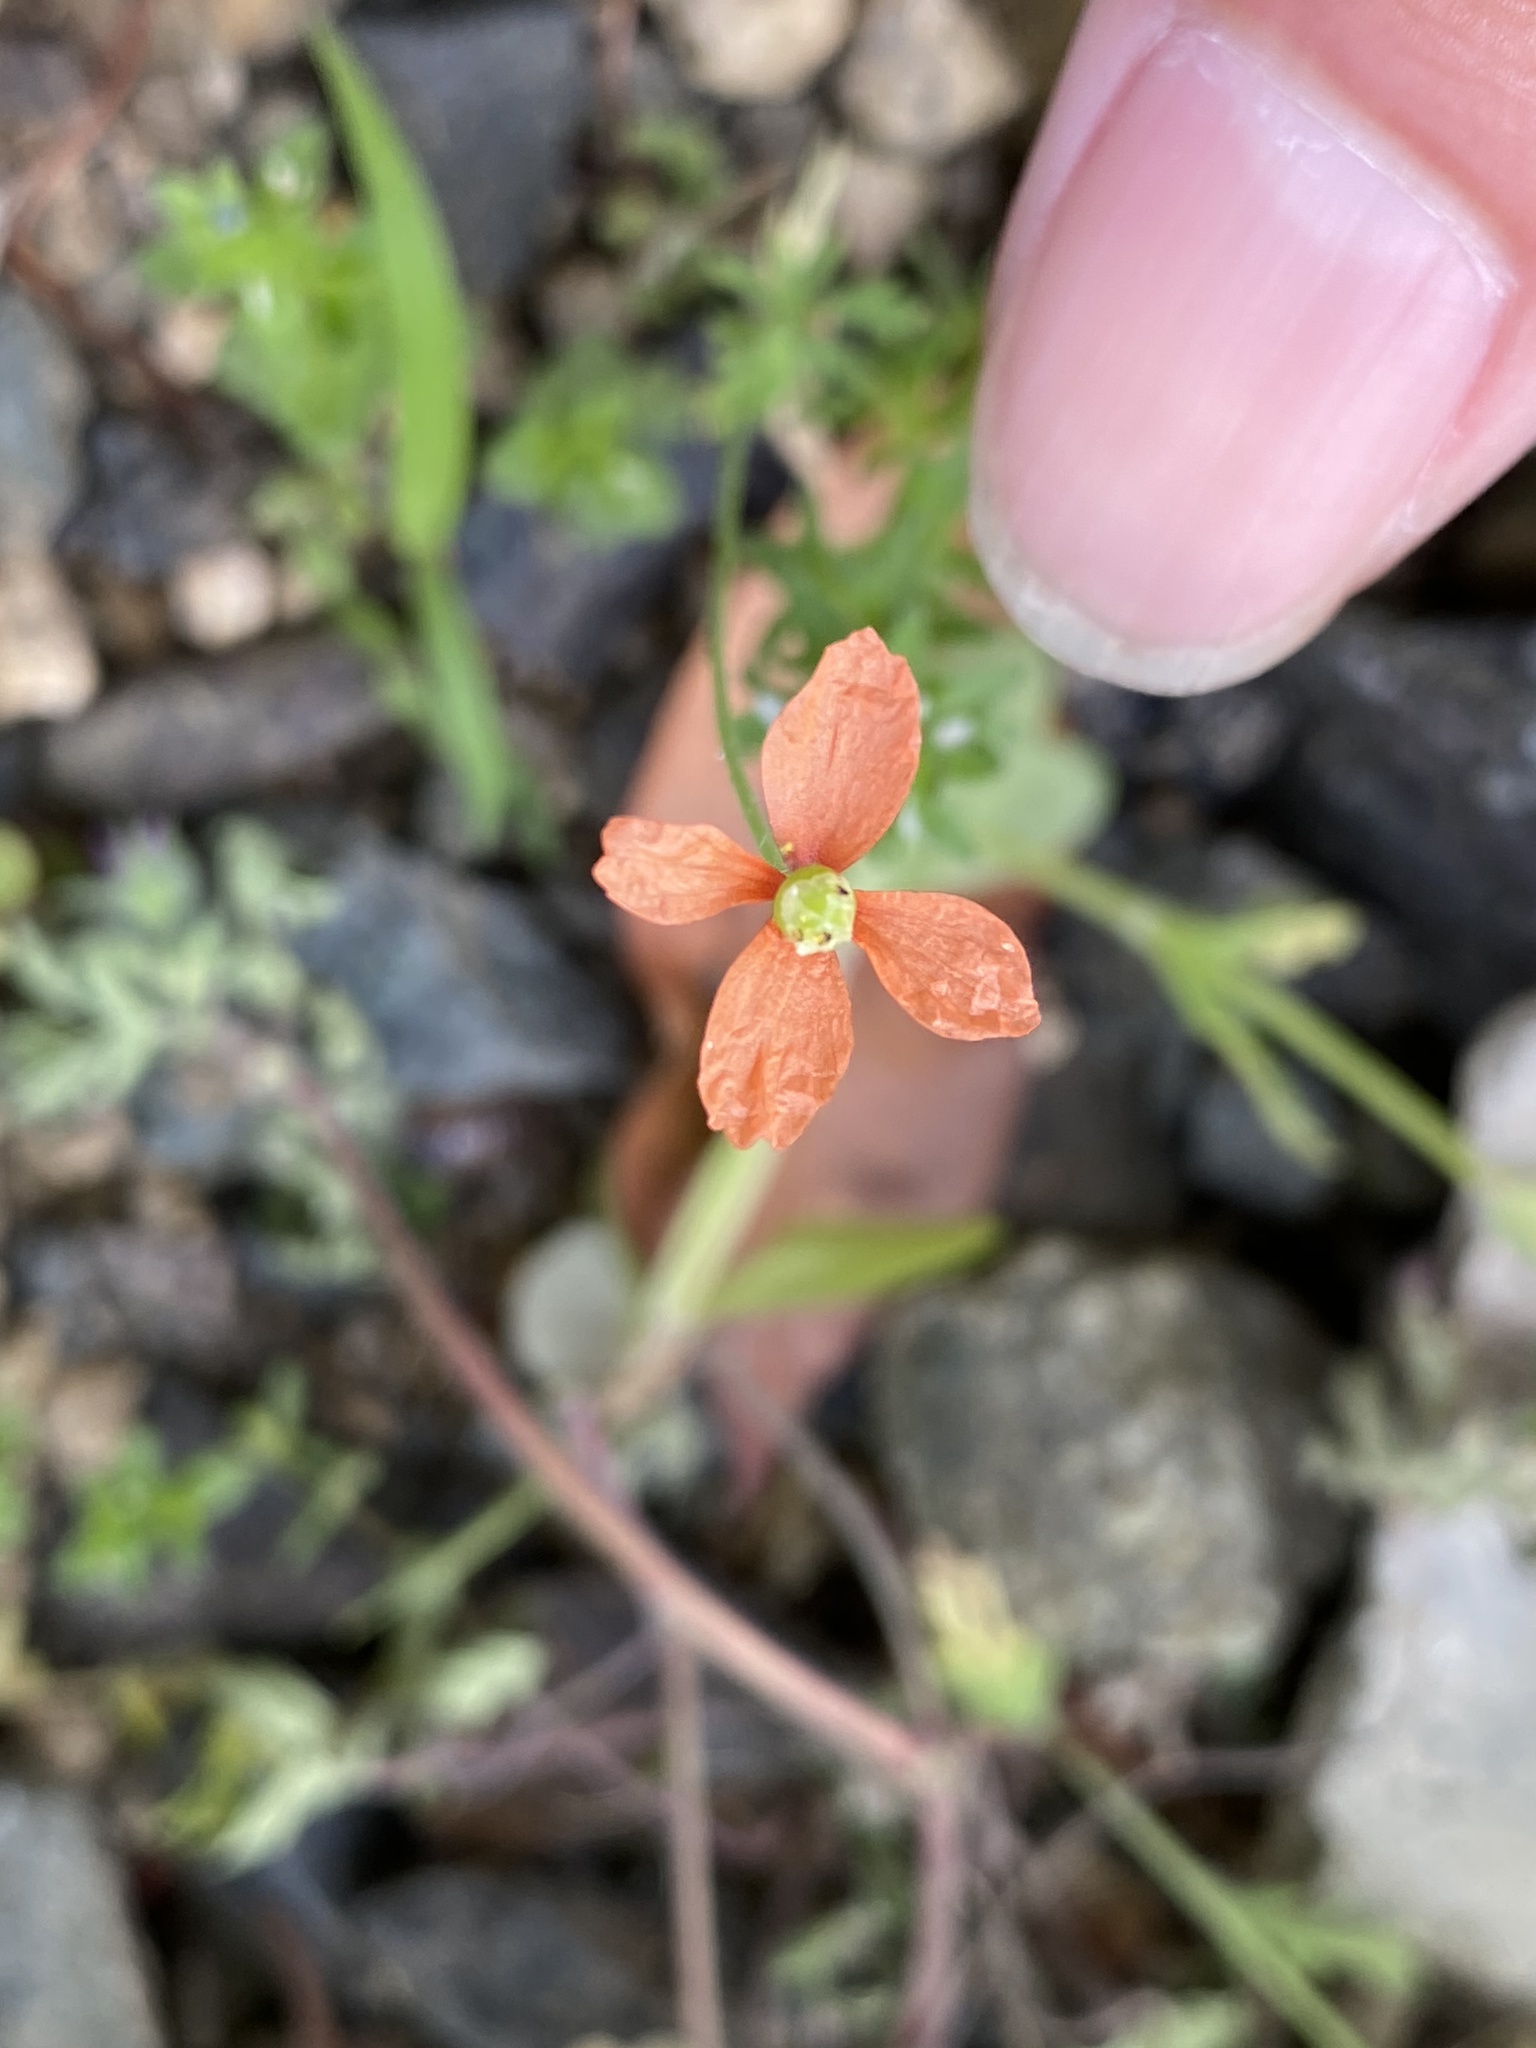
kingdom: Plantae
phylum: Tracheophyta
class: Magnoliopsida
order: Ranunculales
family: Papaveraceae
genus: Papaver
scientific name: Papaver dubium
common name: Long-headed poppy
